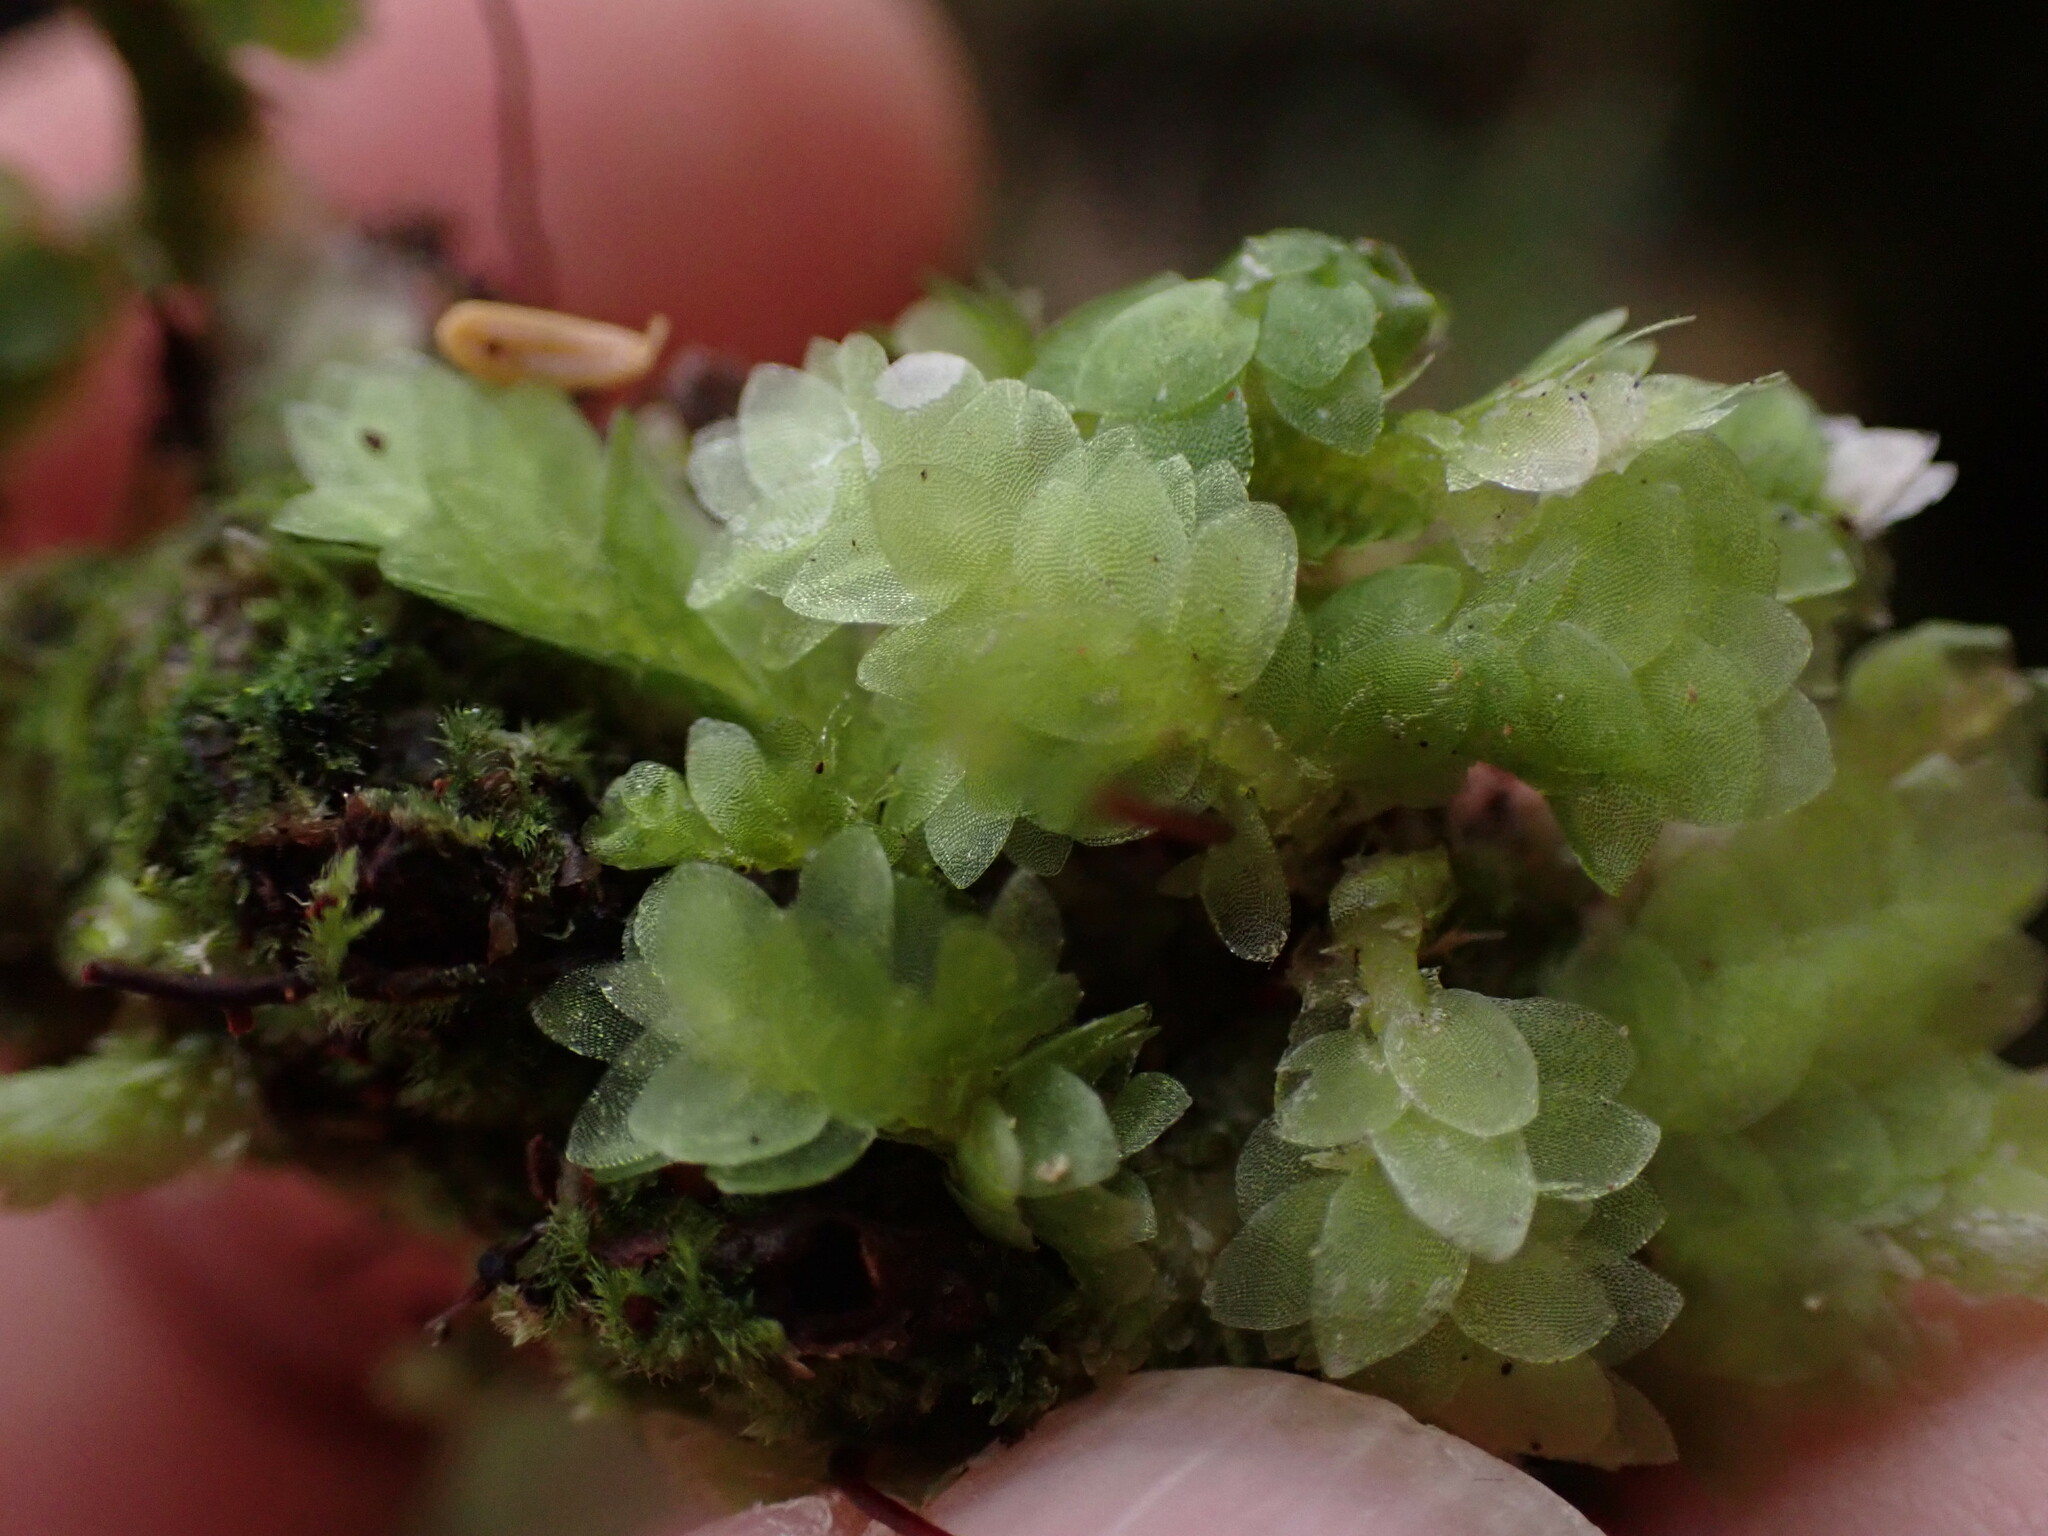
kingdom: Plantae
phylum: Bryophyta
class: Bryopsida
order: Hookeriales
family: Hookeriaceae
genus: Hookeria
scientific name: Hookeria lucens
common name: Shining hookeria
